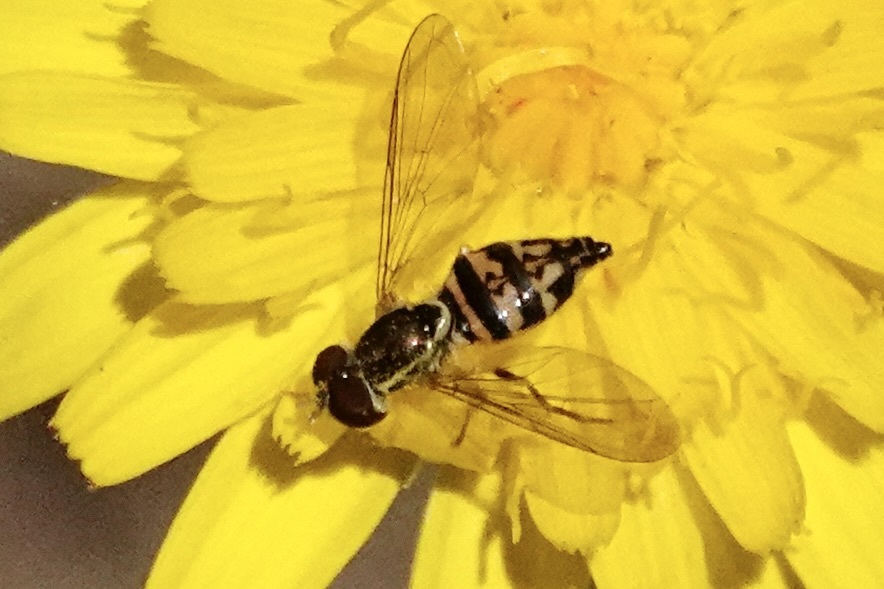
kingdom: Animalia
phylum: Arthropoda
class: Insecta
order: Diptera
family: Syrphidae
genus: Toxomerus
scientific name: Toxomerus geminatus
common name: Eastern calligrapher
